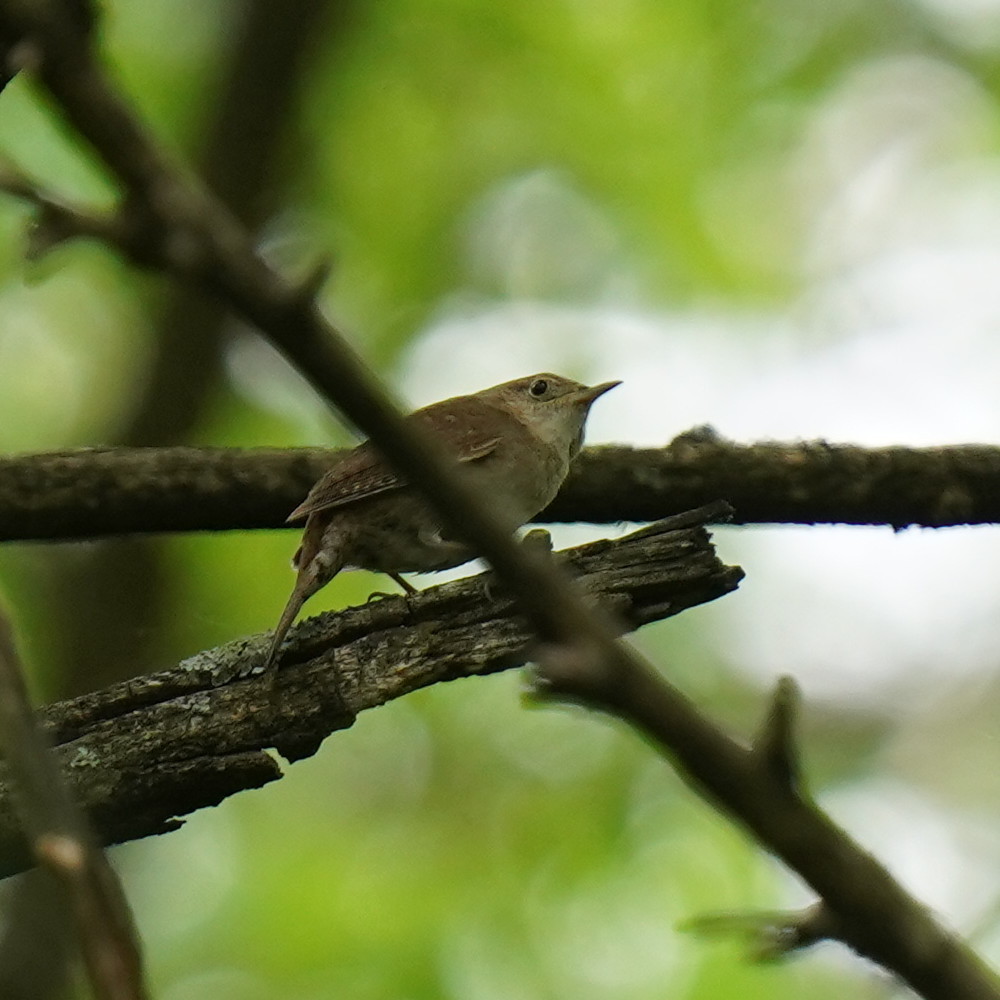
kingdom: Animalia
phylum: Chordata
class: Aves
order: Passeriformes
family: Troglodytidae
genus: Troglodytes
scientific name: Troglodytes aedon
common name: House wren
